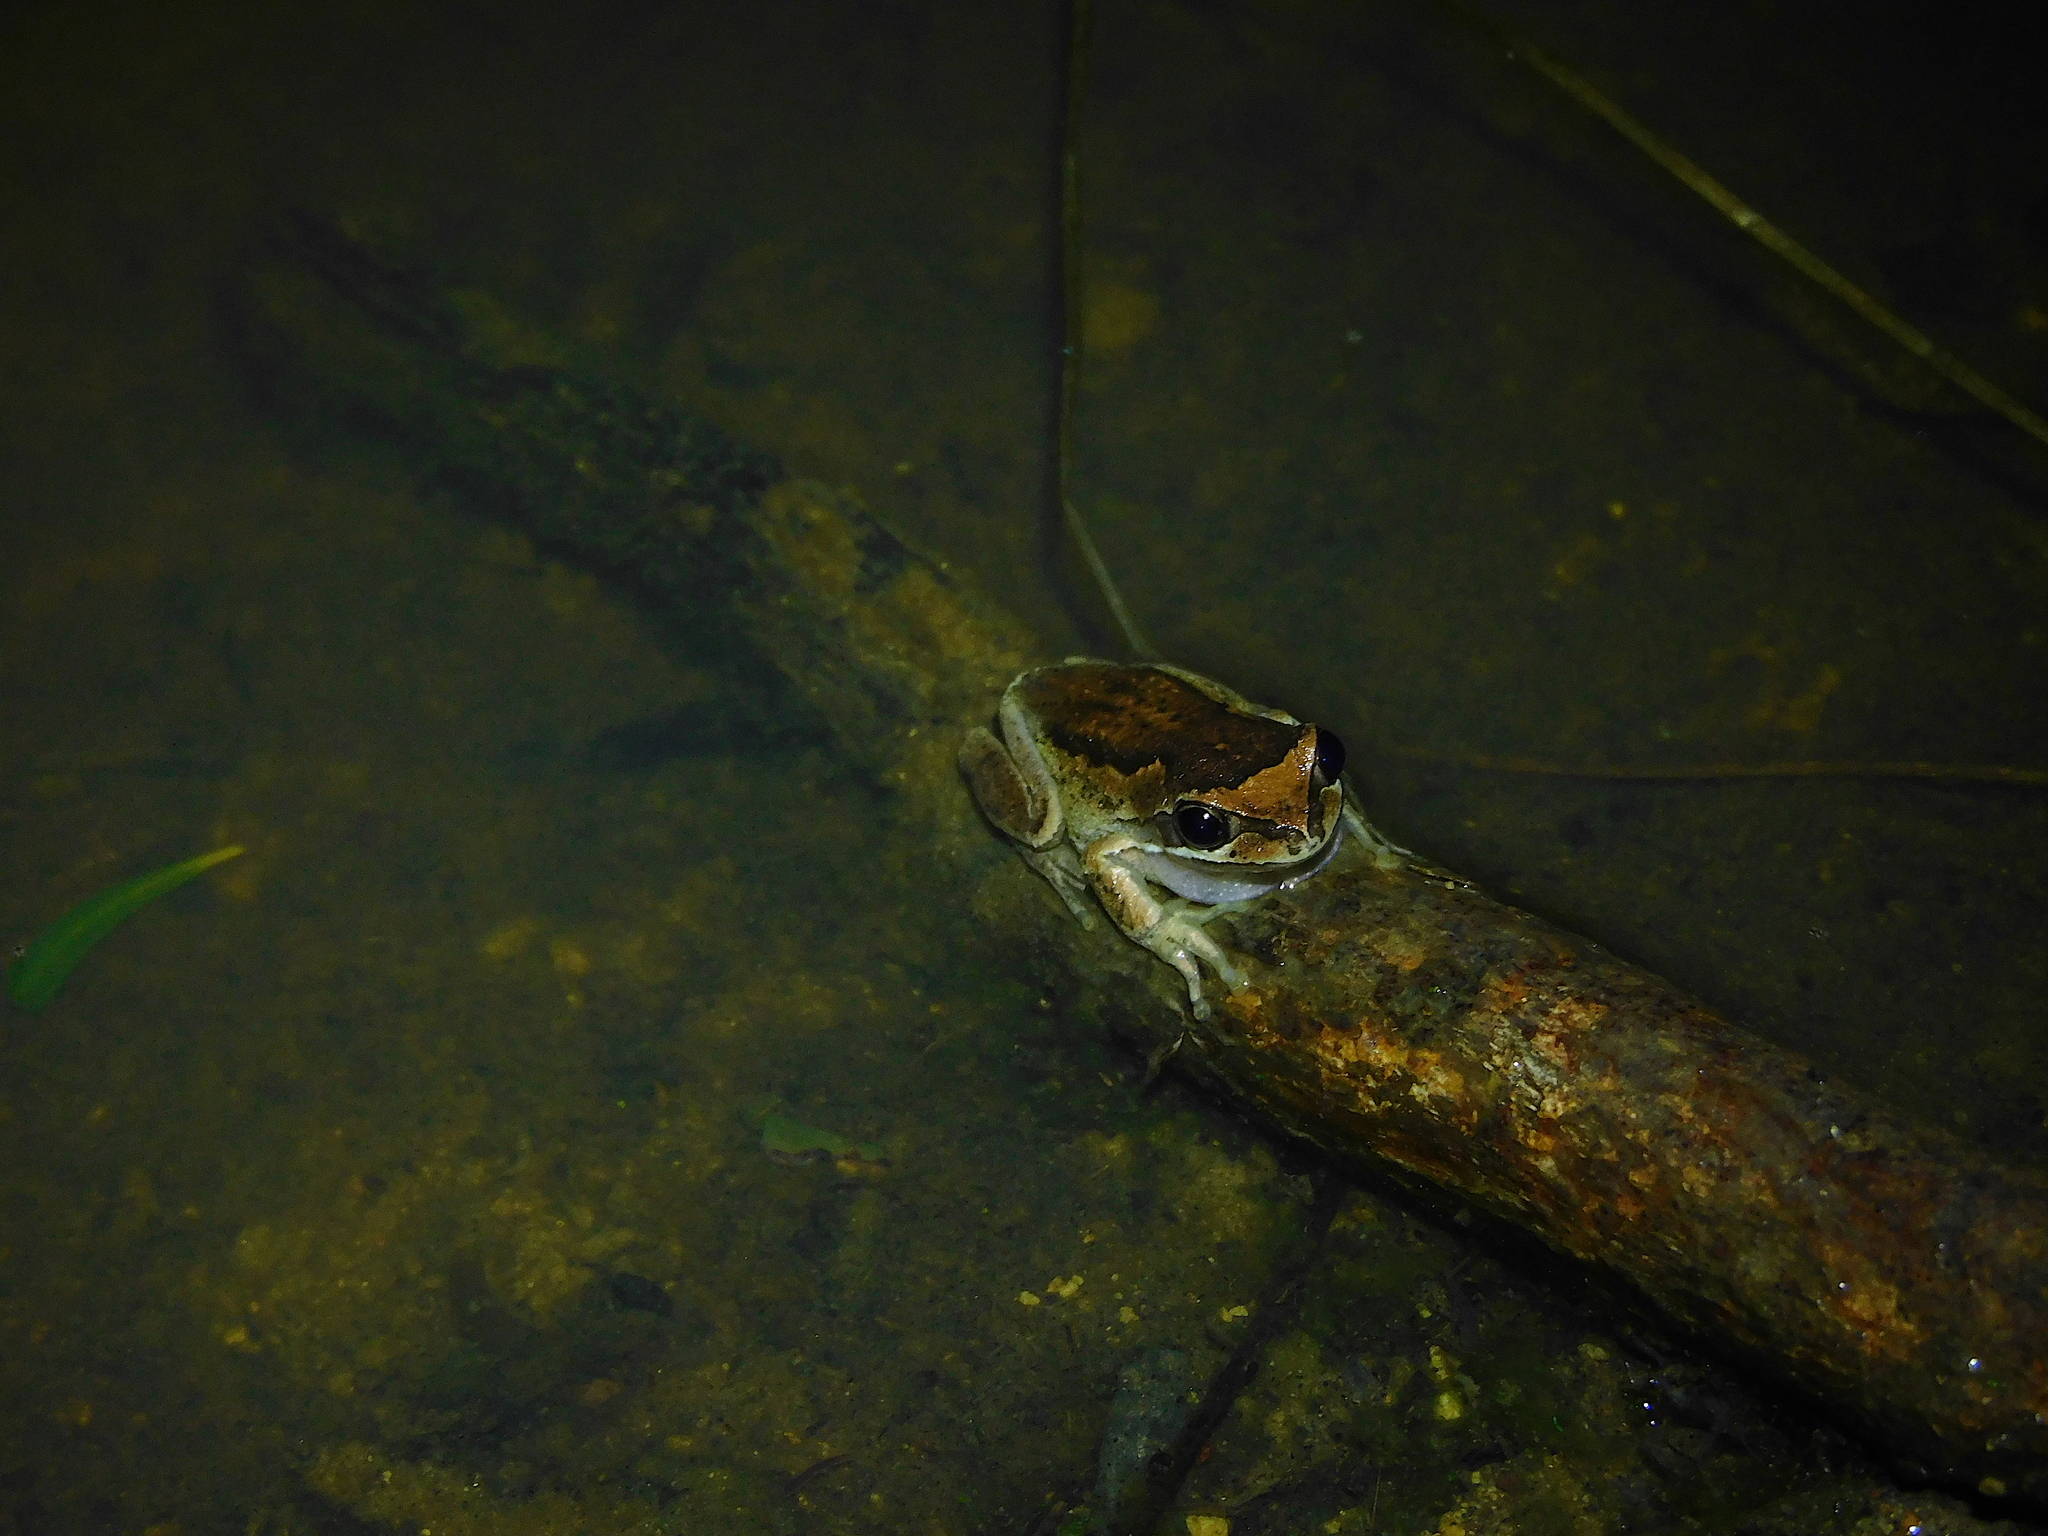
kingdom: Animalia
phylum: Chordata
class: Amphibia
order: Anura
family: Pelodryadidae
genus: Litoria
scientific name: Litoria ewingii
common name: Southern brown tree frog
